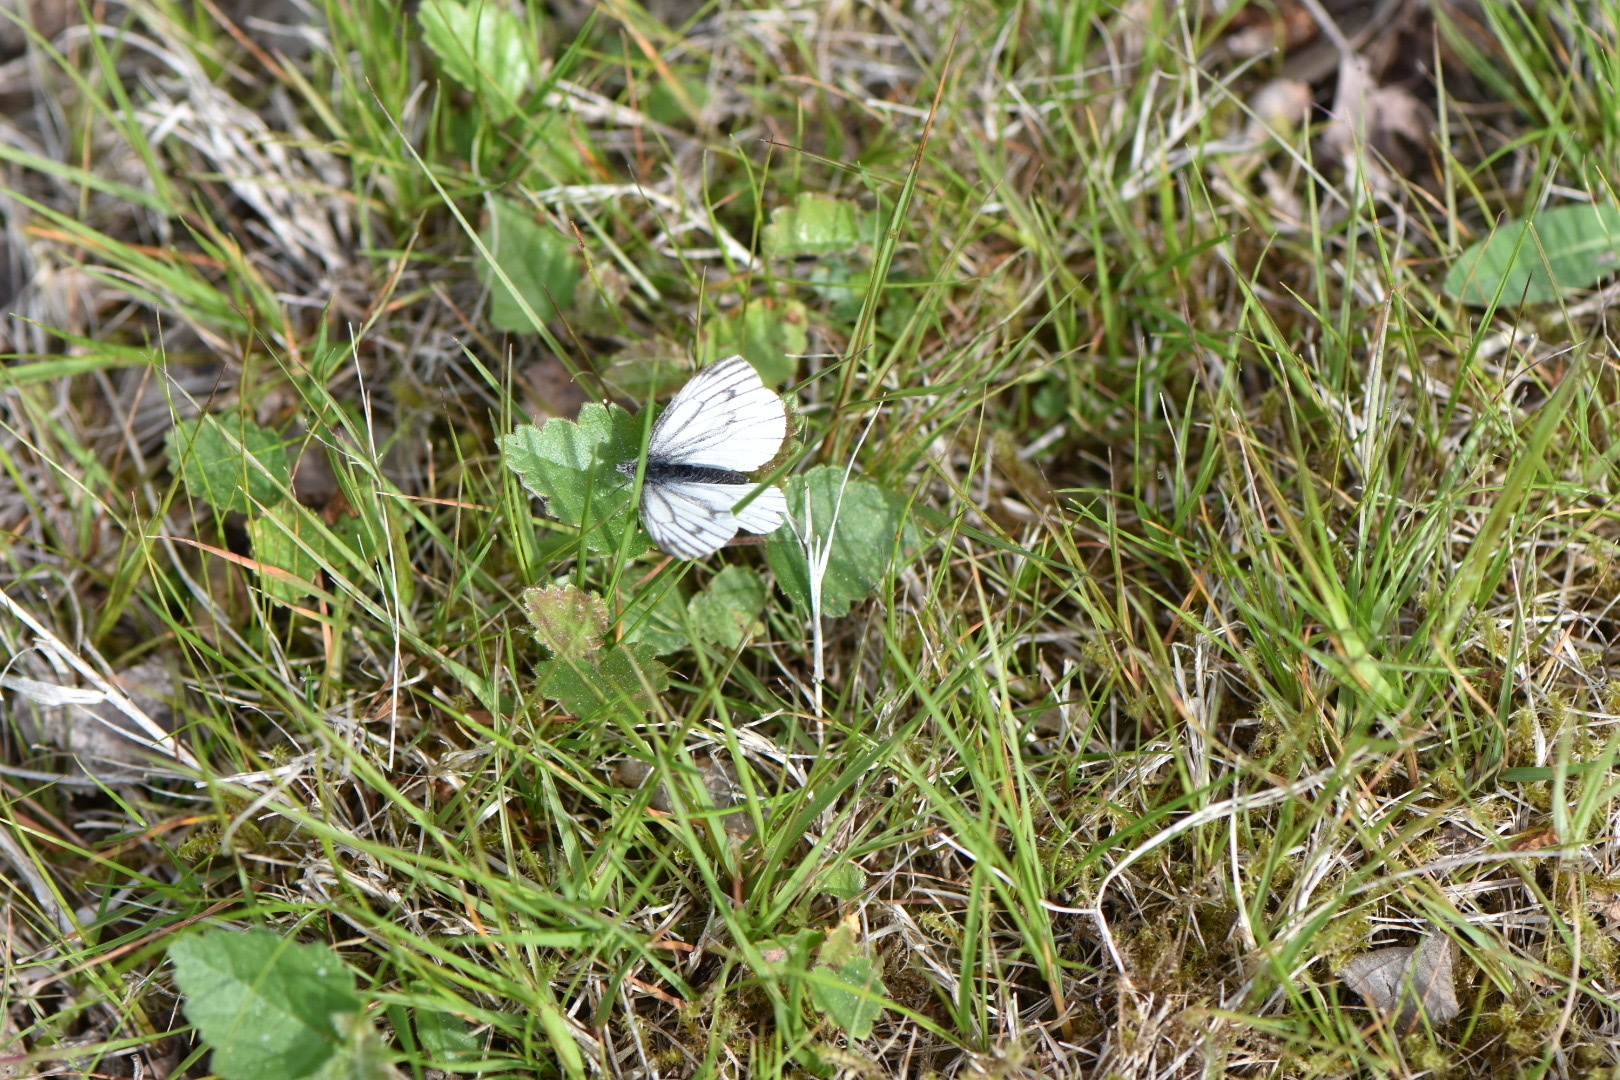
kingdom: Animalia
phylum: Arthropoda
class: Insecta
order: Lepidoptera
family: Pieridae
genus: Pieris
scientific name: Pieris napi
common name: Green-veined white
